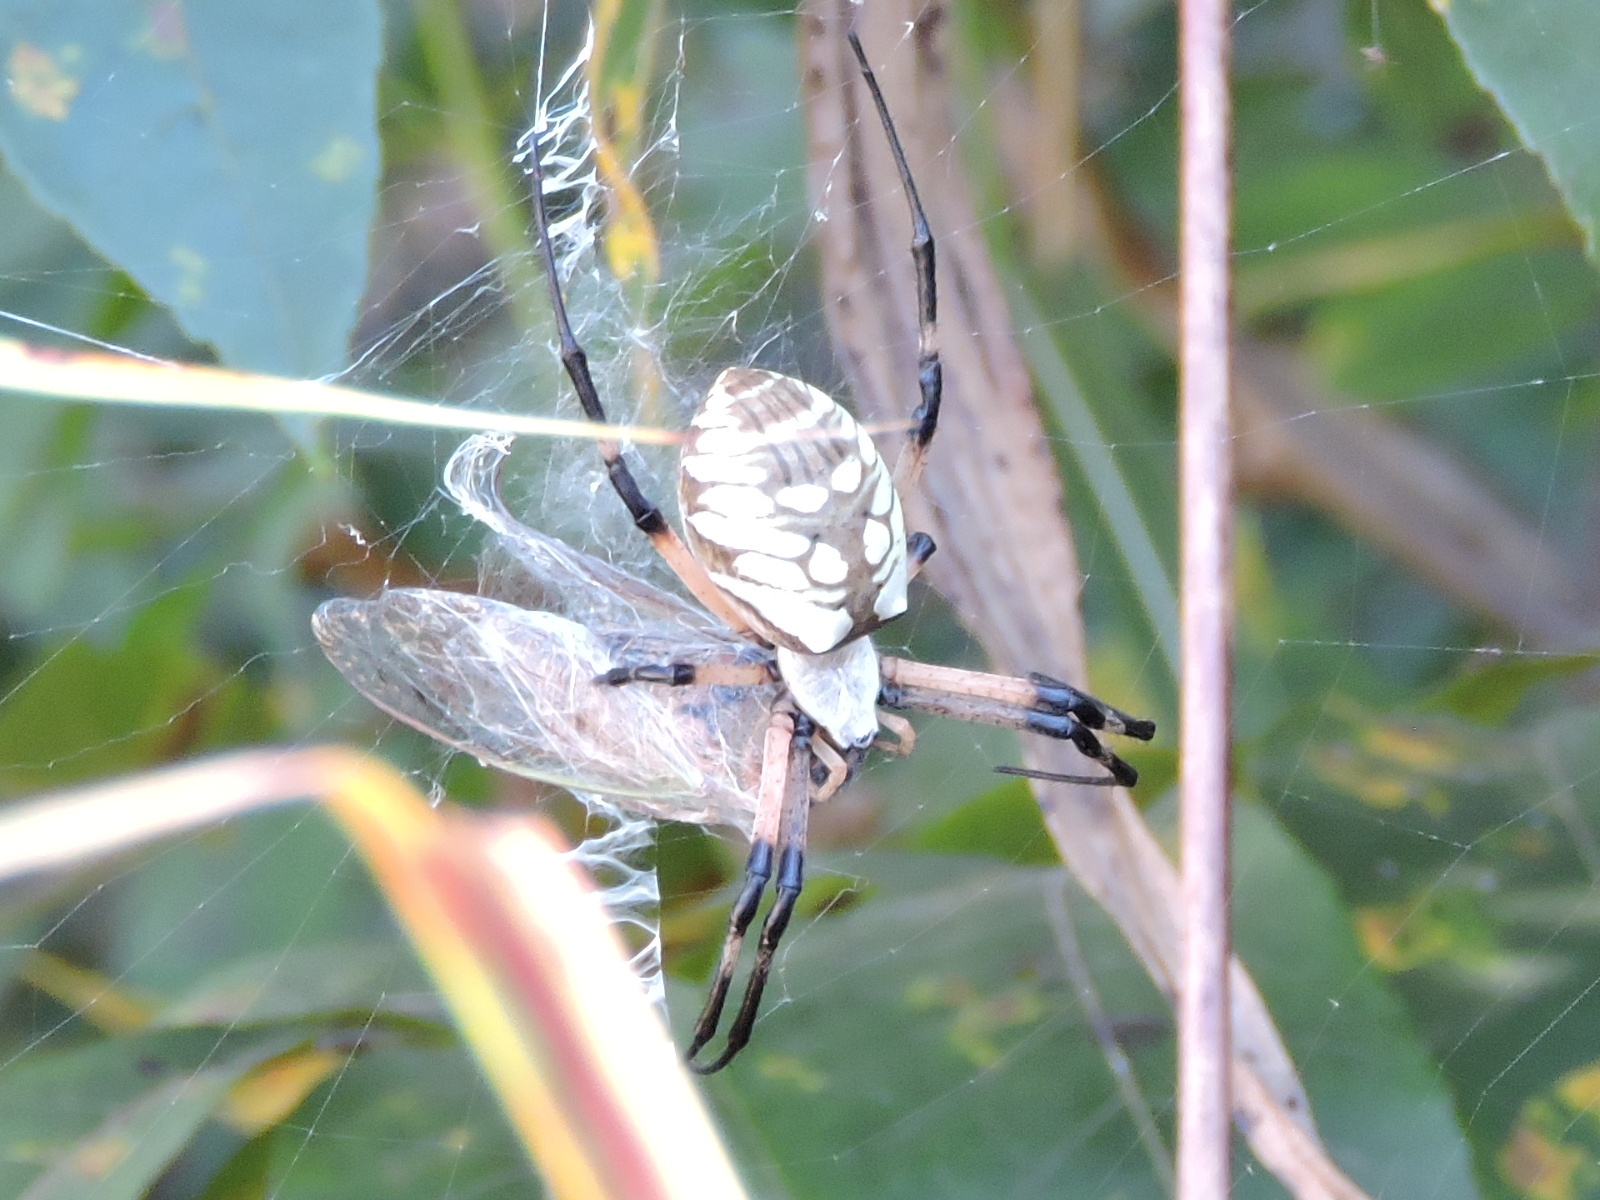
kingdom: Animalia
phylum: Arthropoda
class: Arachnida
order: Araneae
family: Araneidae
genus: Argiope
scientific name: Argiope aurantia
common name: Orb weavers
